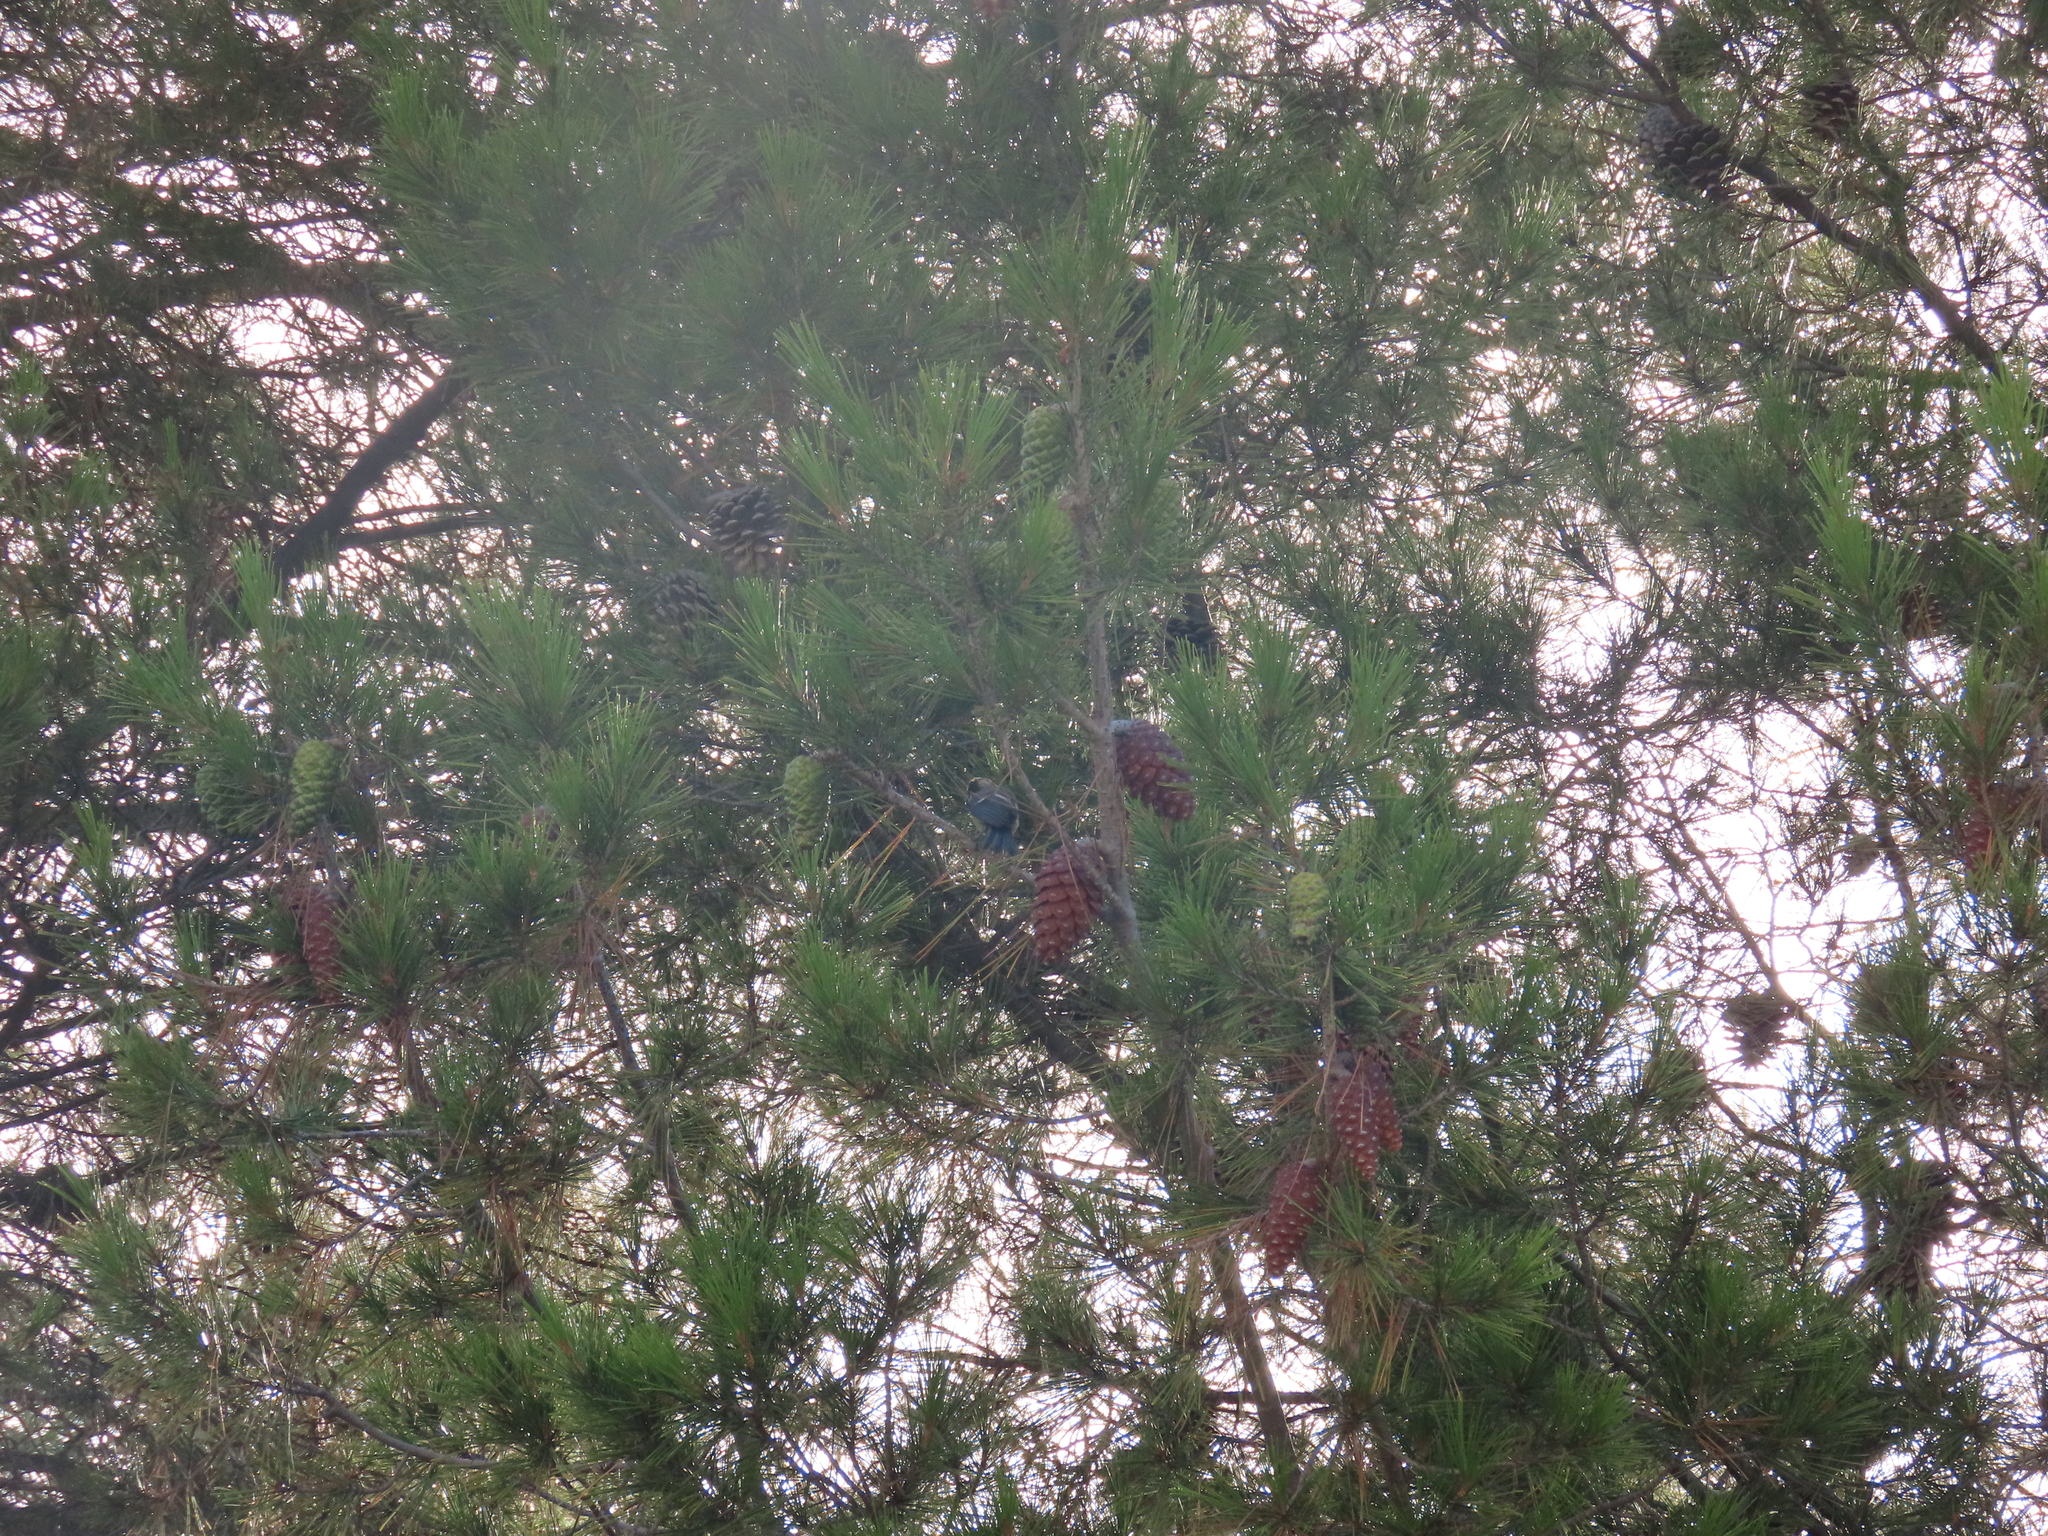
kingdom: Animalia
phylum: Chordata
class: Aves
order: Passeriformes
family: Paridae
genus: Cyanistes
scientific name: Cyanistes caeruleus
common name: Eurasian blue tit
